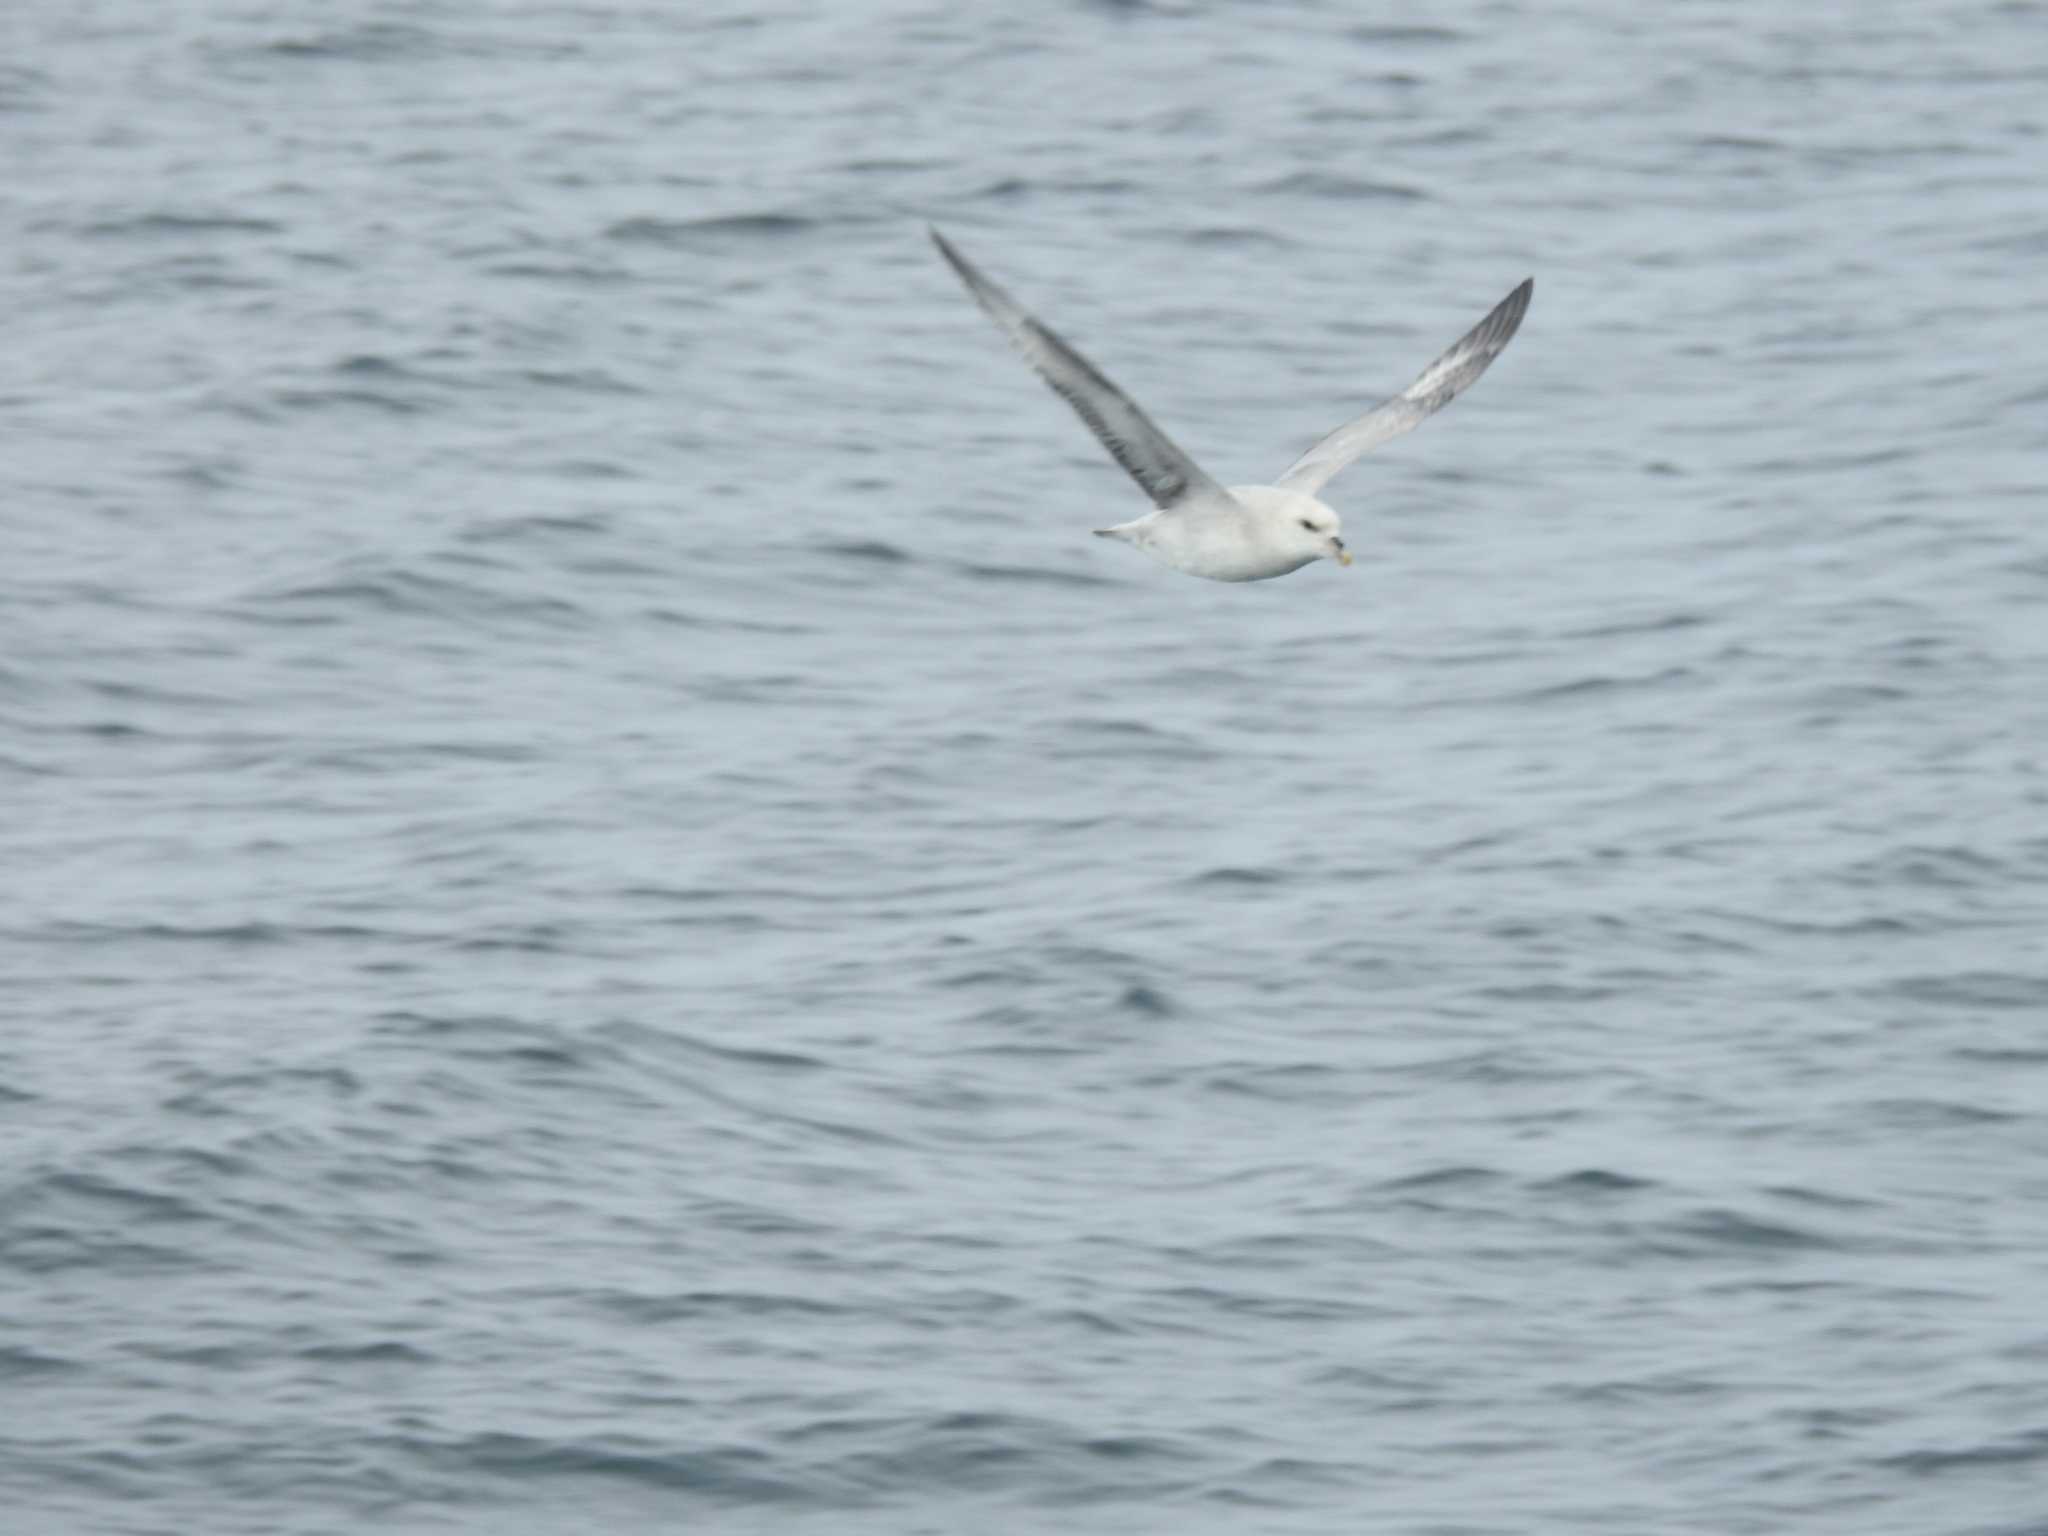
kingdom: Animalia
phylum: Chordata
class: Aves
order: Procellariiformes
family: Procellariidae
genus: Fulmarus
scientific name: Fulmarus glacialis
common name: Northern fulmar
